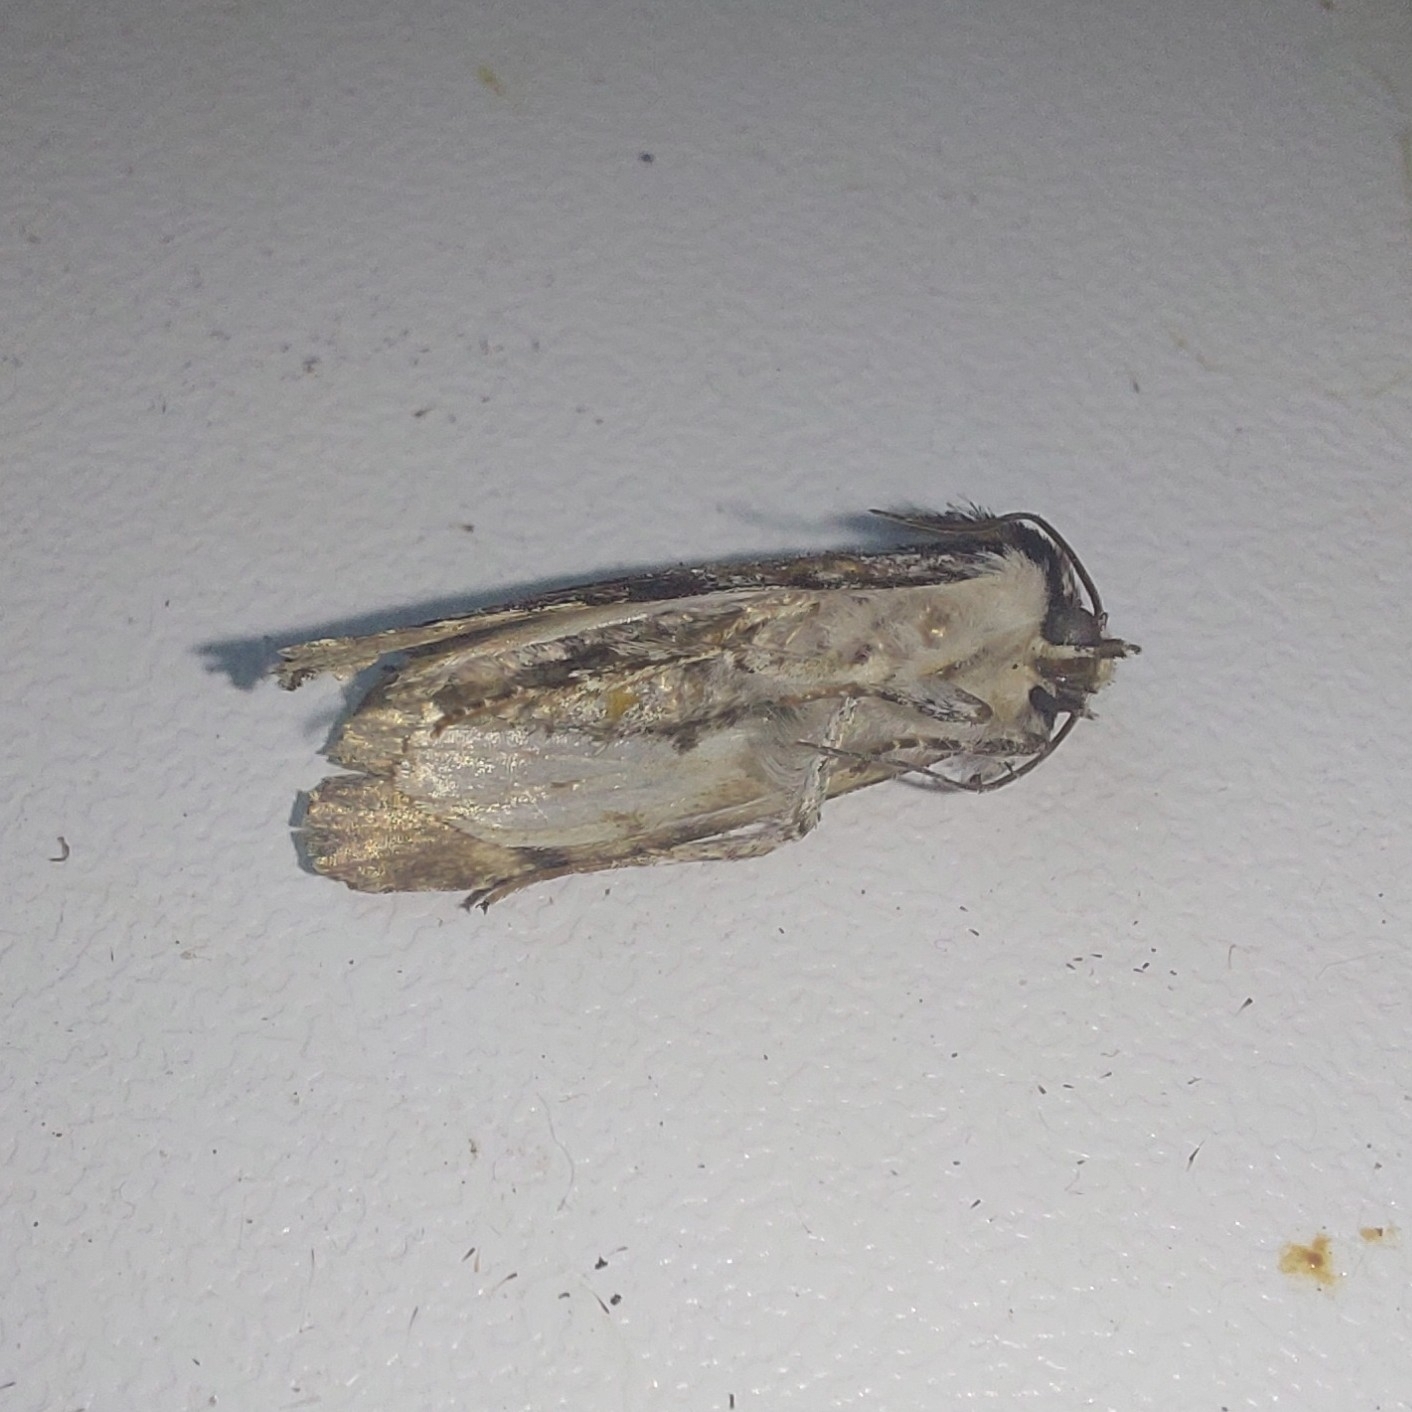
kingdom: Animalia
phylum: Arthropoda
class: Insecta
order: Lepidoptera
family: Noctuidae
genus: Acronicta
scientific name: Acronicta alni
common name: Alder moth
